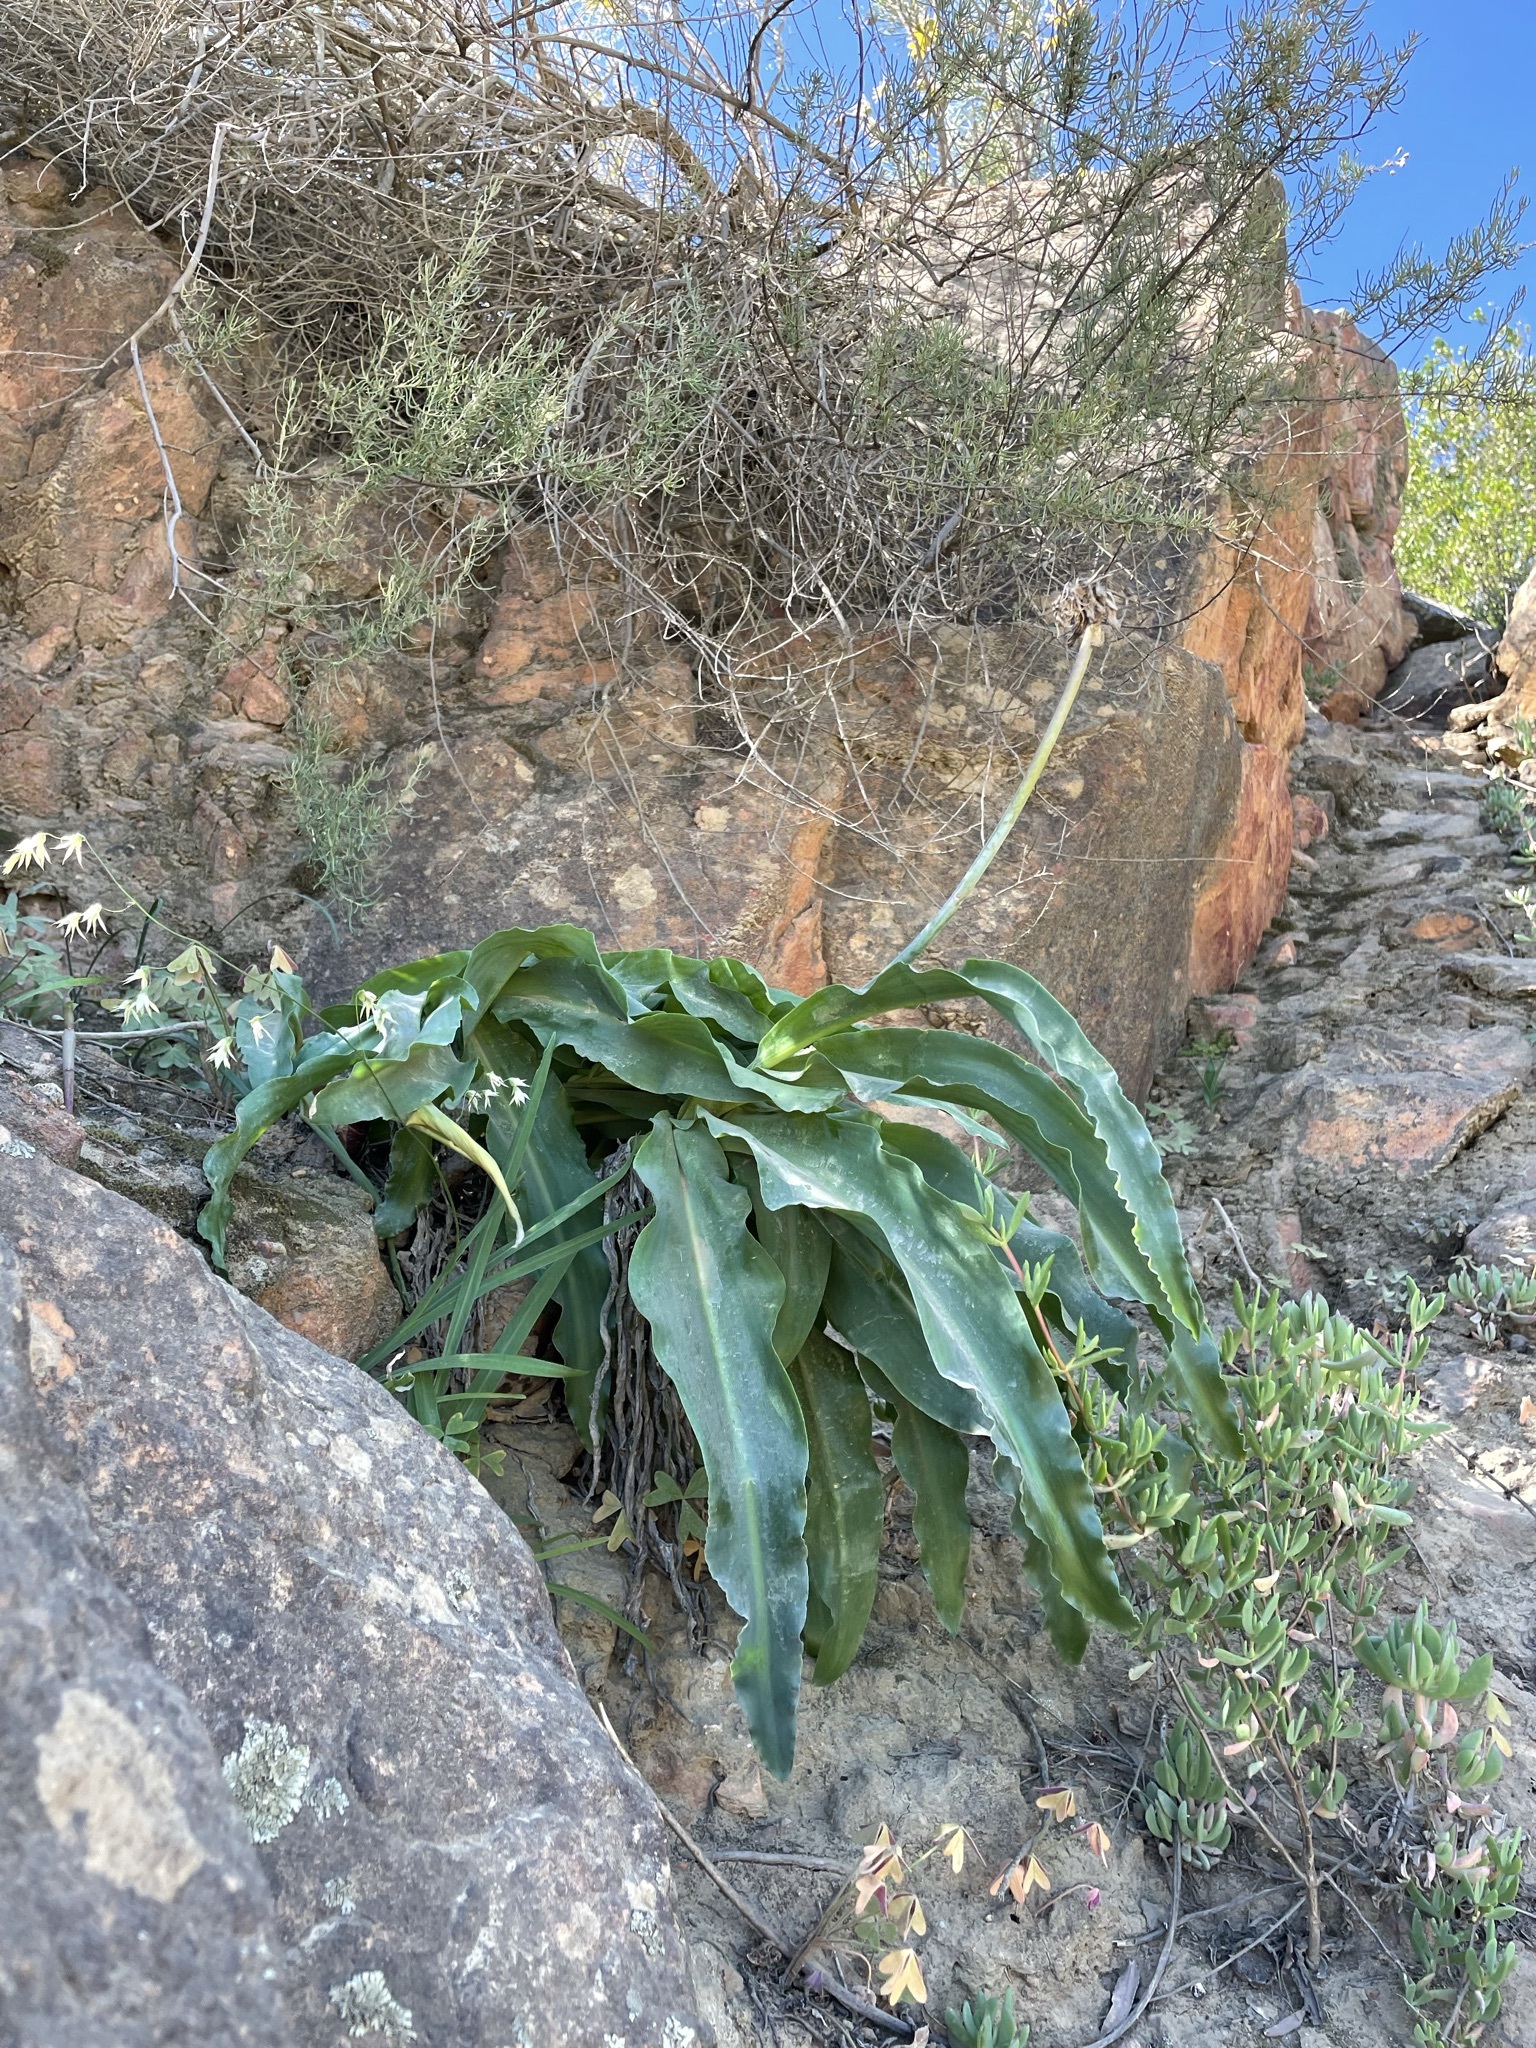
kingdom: Plantae
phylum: Tracheophyta
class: Liliopsida
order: Asparagales
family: Asparagaceae
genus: Veltheimia
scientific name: Veltheimia capensis
